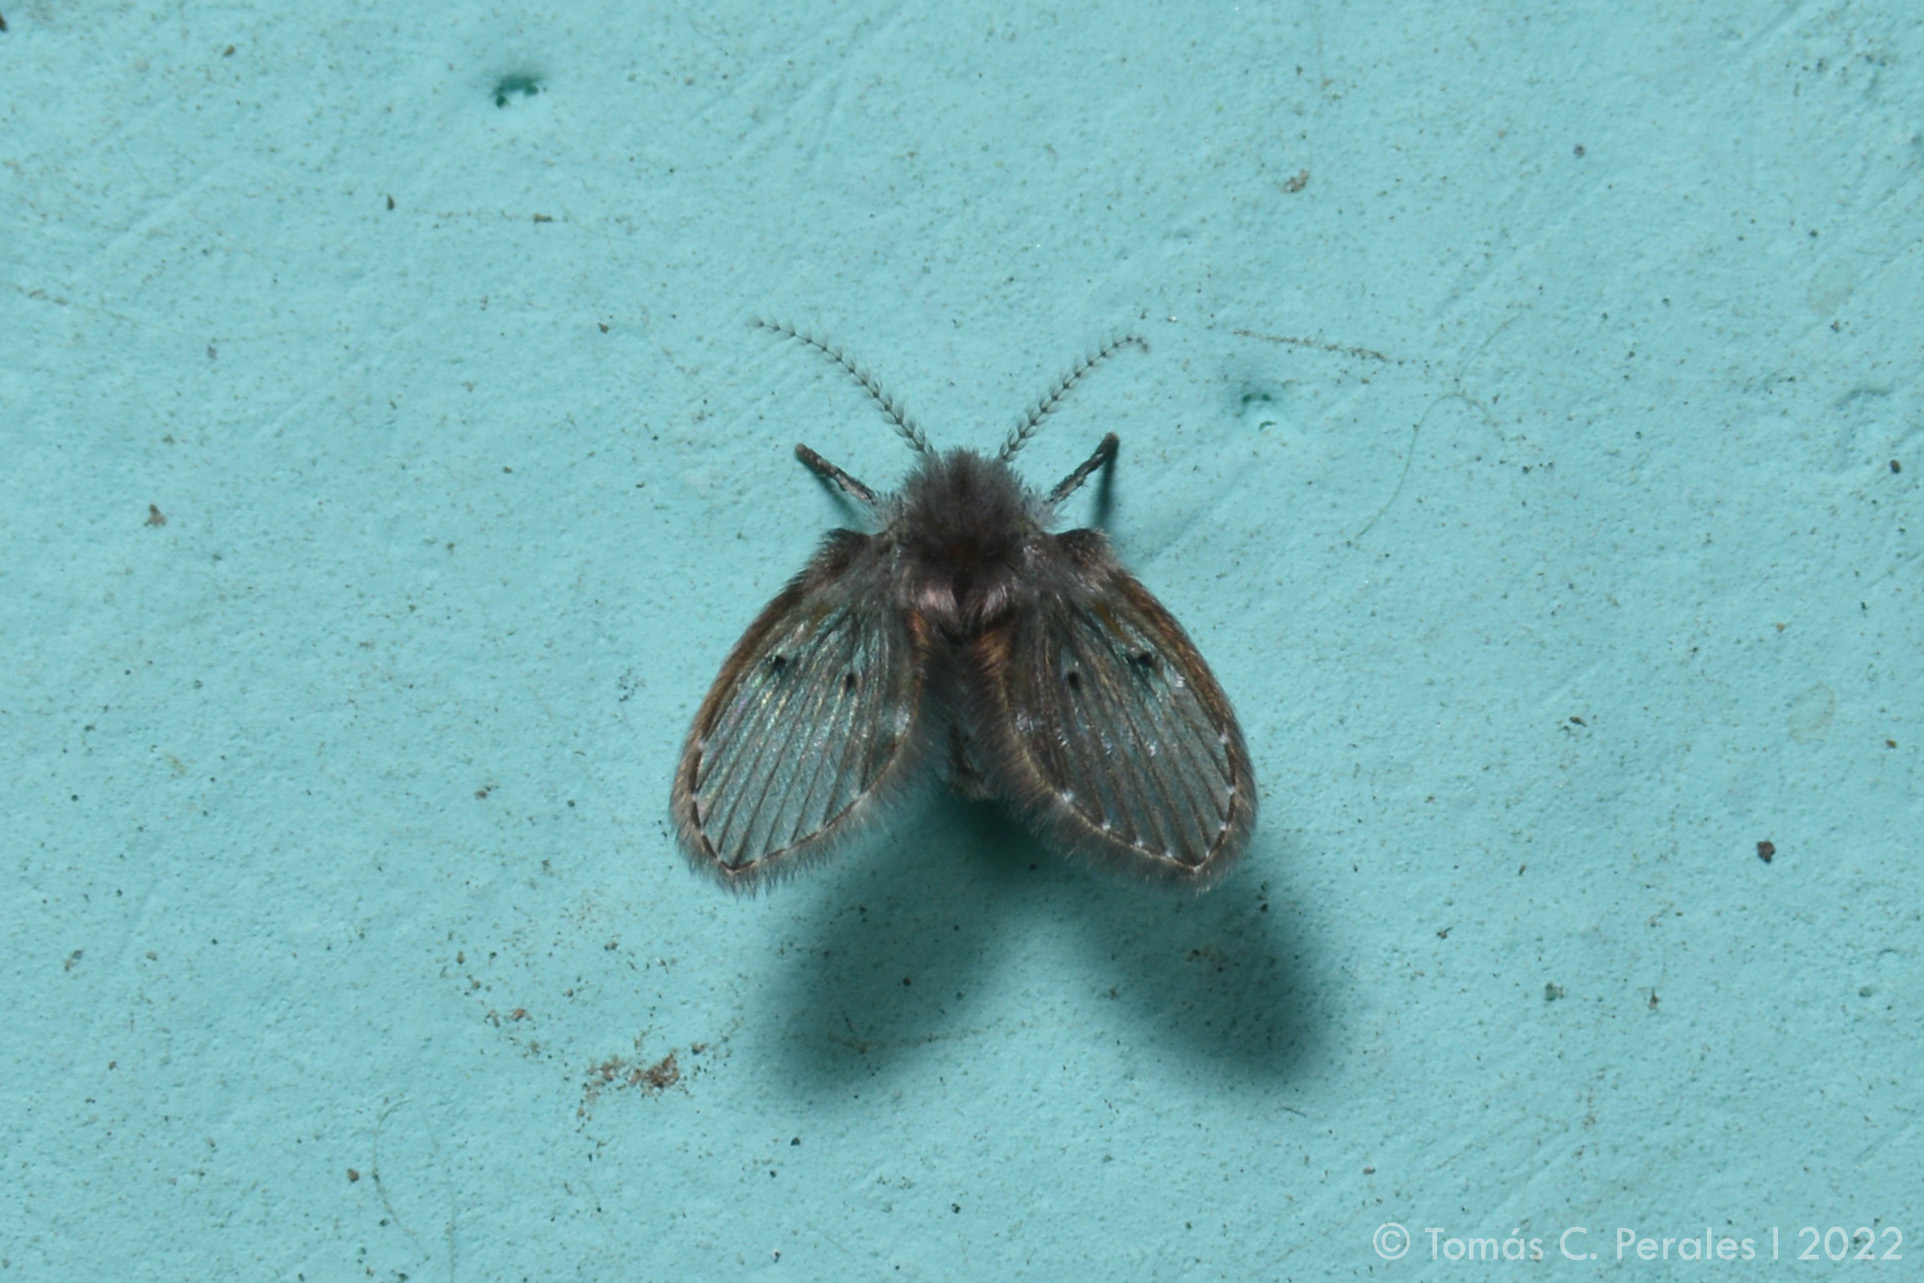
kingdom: Animalia
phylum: Arthropoda
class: Insecta
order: Diptera
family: Psychodidae
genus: Clogmia
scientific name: Clogmia albipunctatus
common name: White-spotted moth fly
